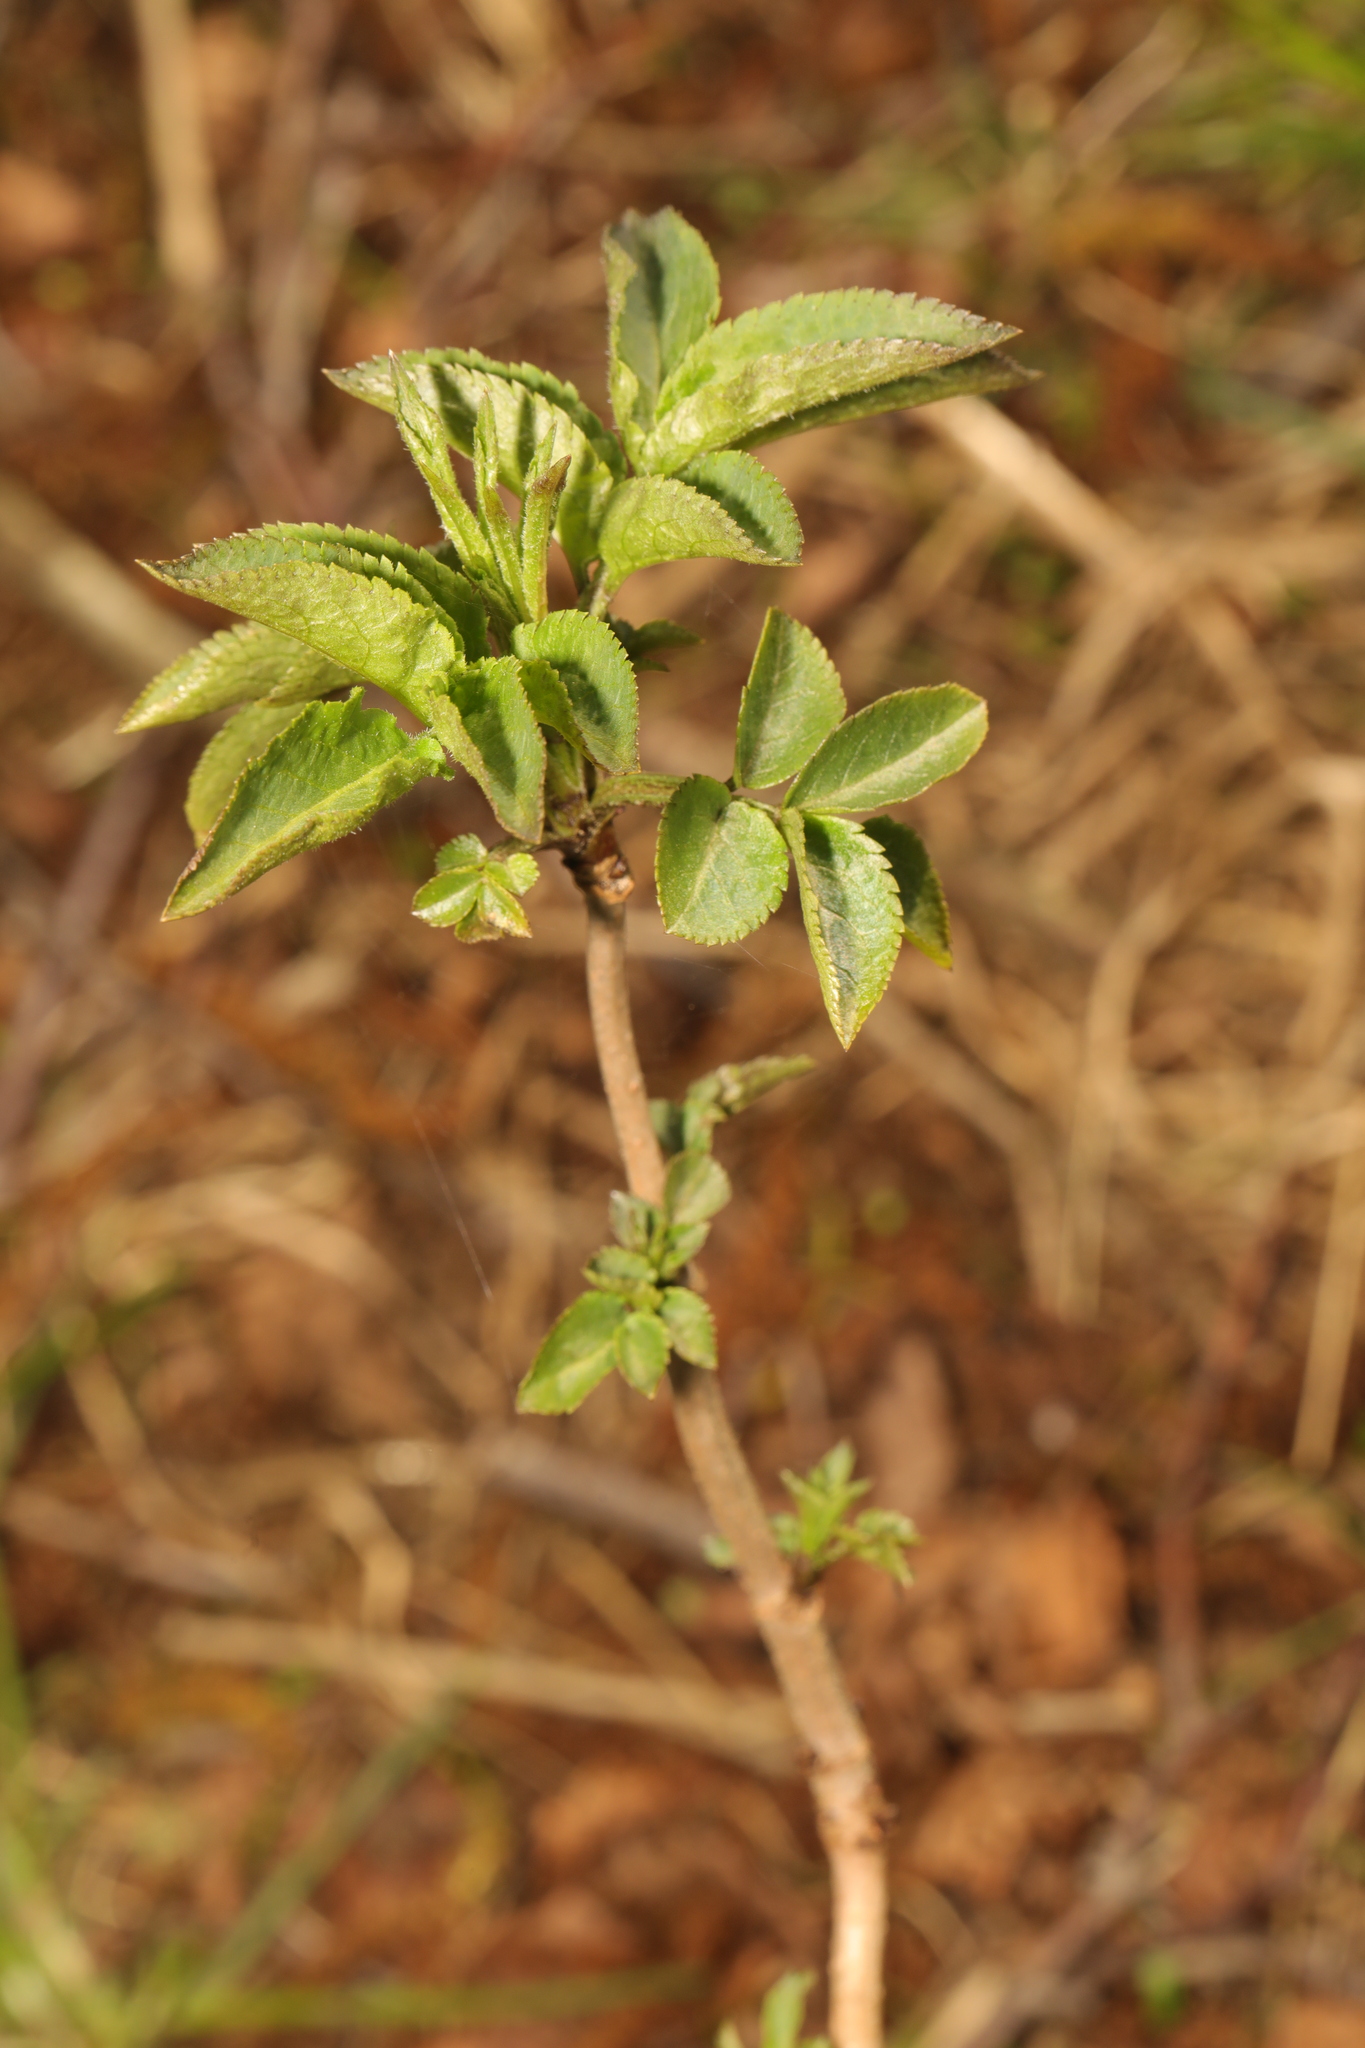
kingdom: Plantae
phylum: Tracheophyta
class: Magnoliopsida
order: Dipsacales
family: Viburnaceae
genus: Sambucus
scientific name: Sambucus nigra
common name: Elder
